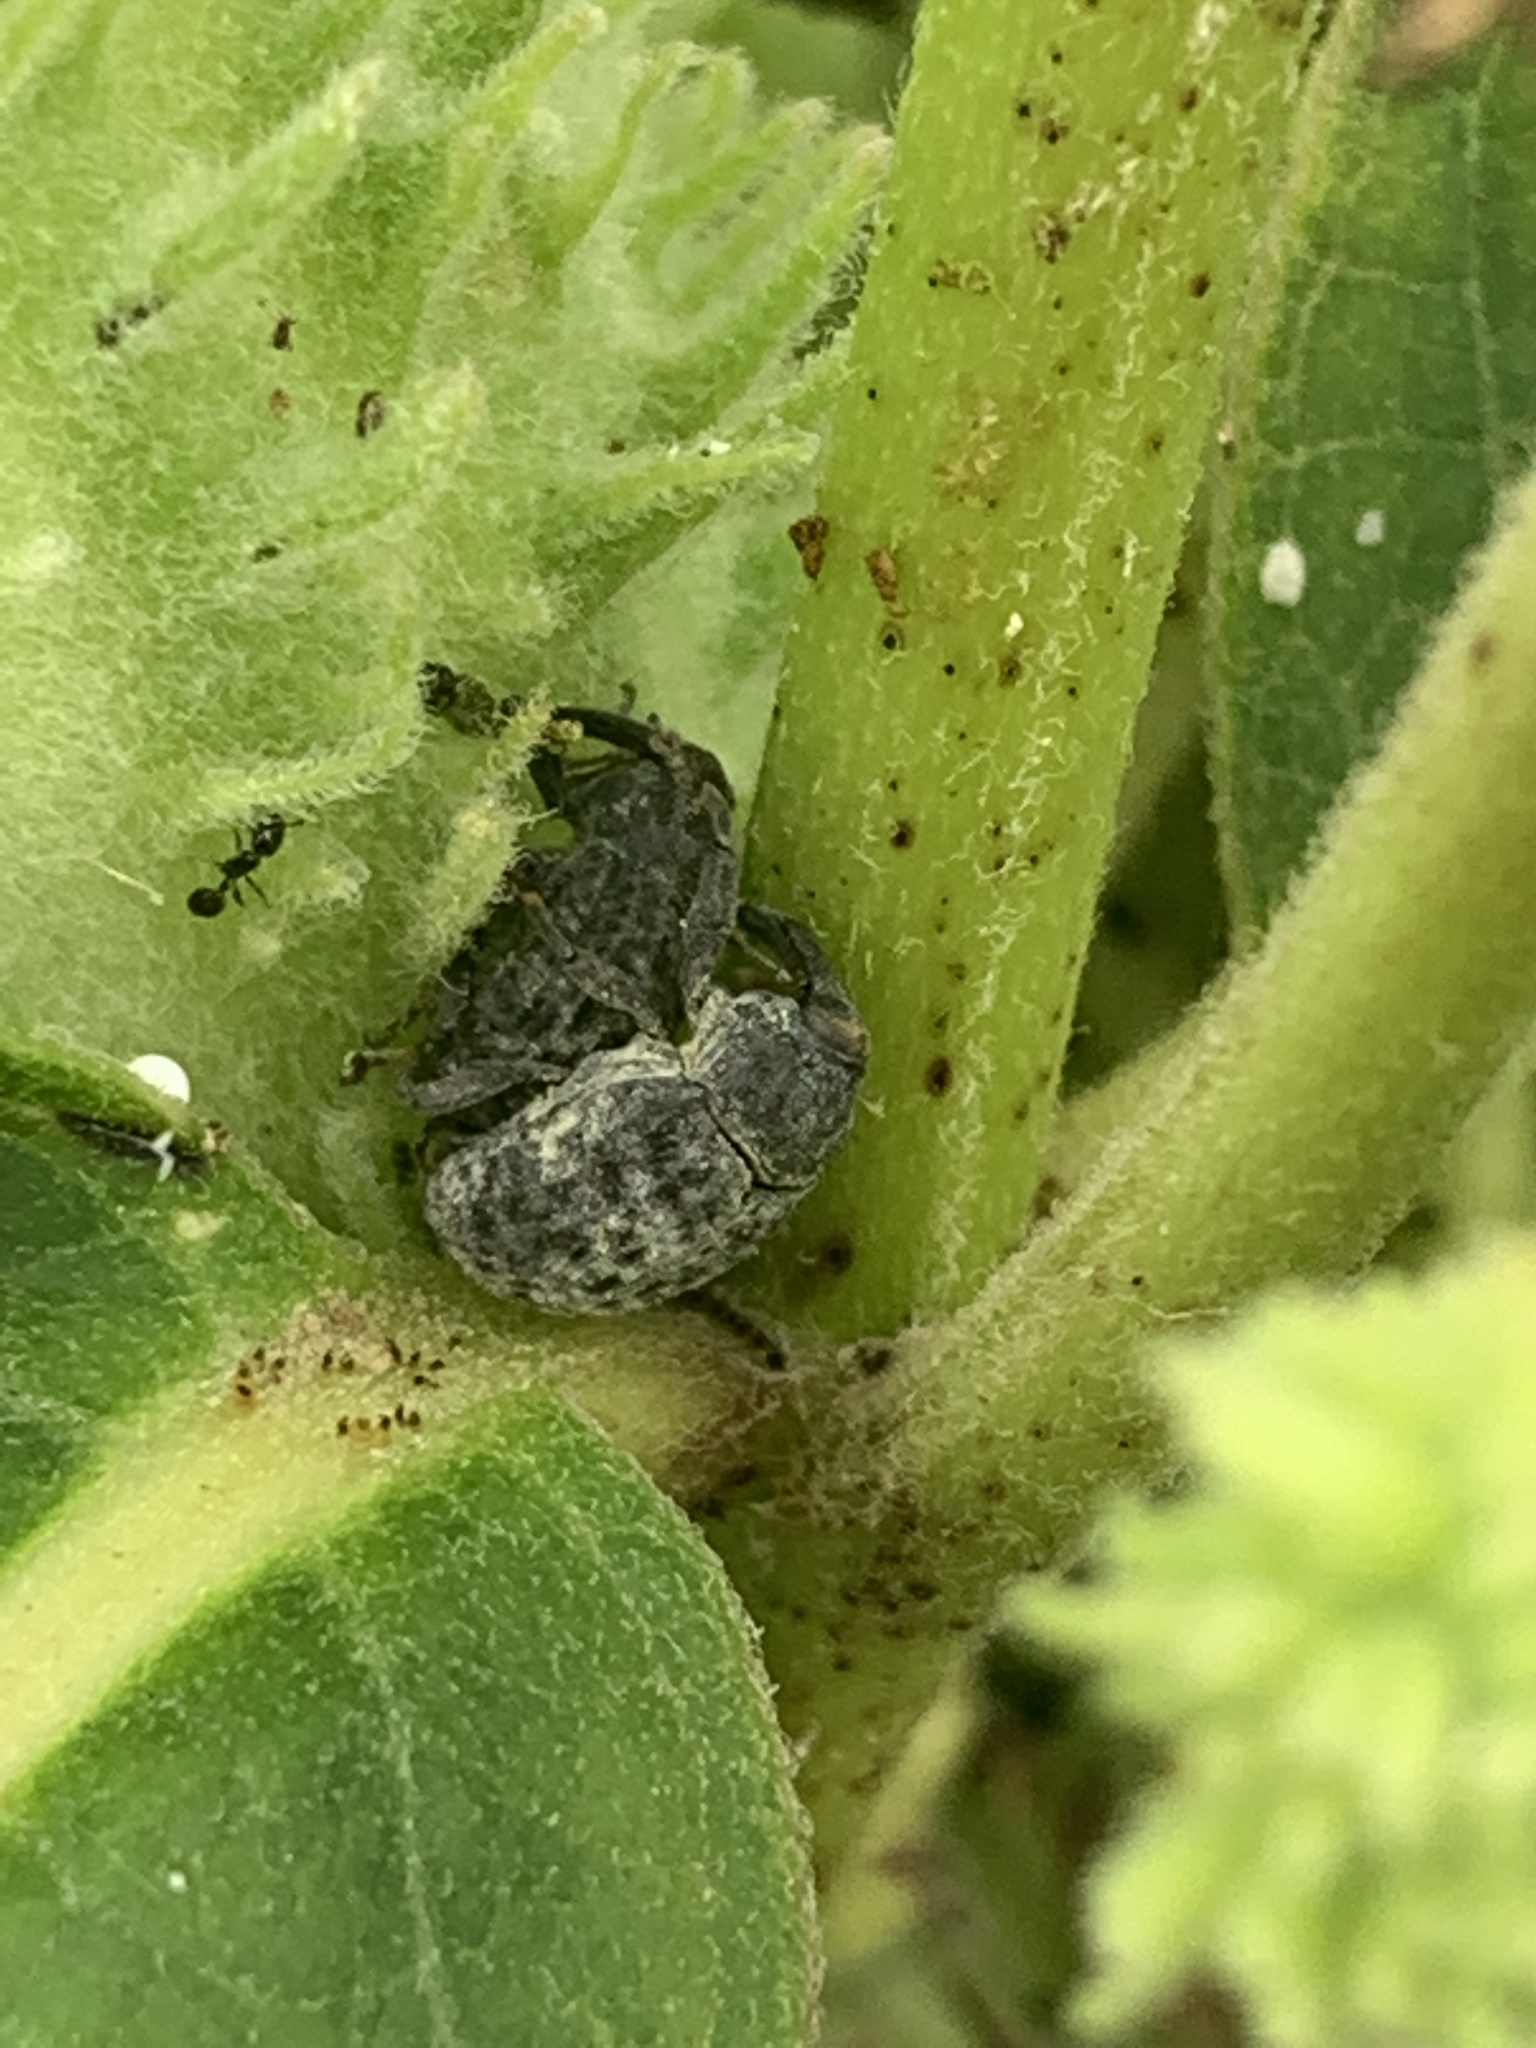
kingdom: Animalia
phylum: Arthropoda
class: Insecta
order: Coleoptera
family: Curculionidae
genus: Rhyssomatus
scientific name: Rhyssomatus lineaticollis
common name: Milkweed stem weevil
